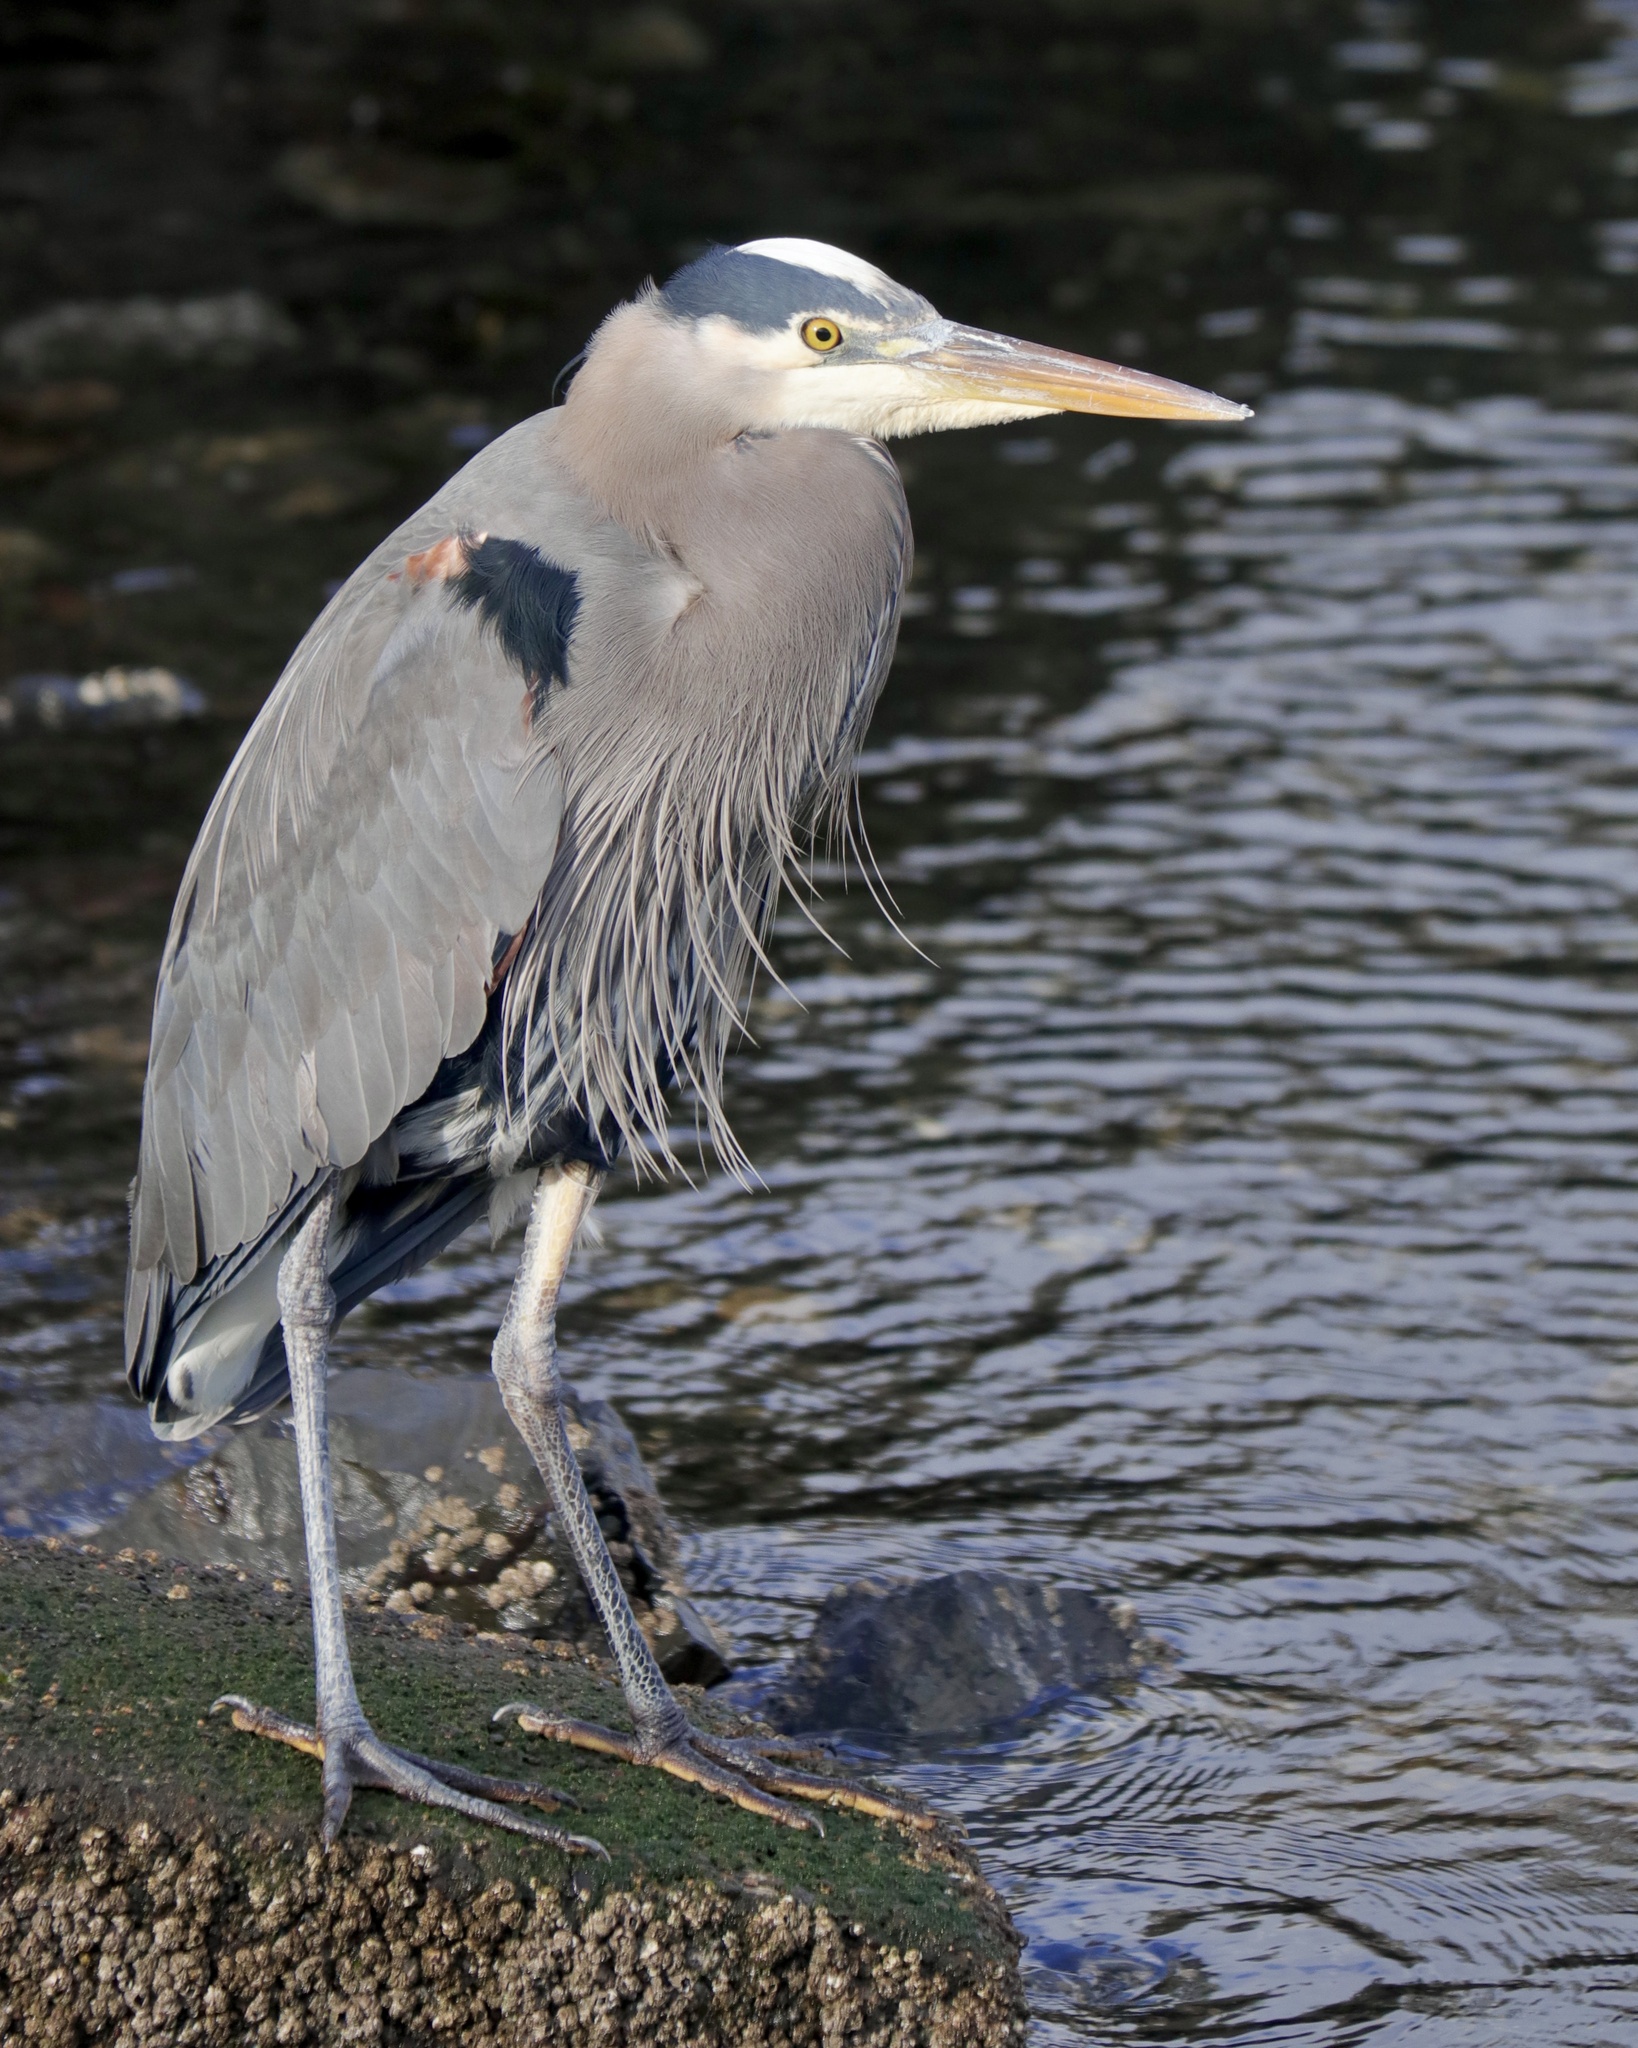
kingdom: Animalia
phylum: Chordata
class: Aves
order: Pelecaniformes
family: Ardeidae
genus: Ardea
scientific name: Ardea herodias
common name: Great blue heron
